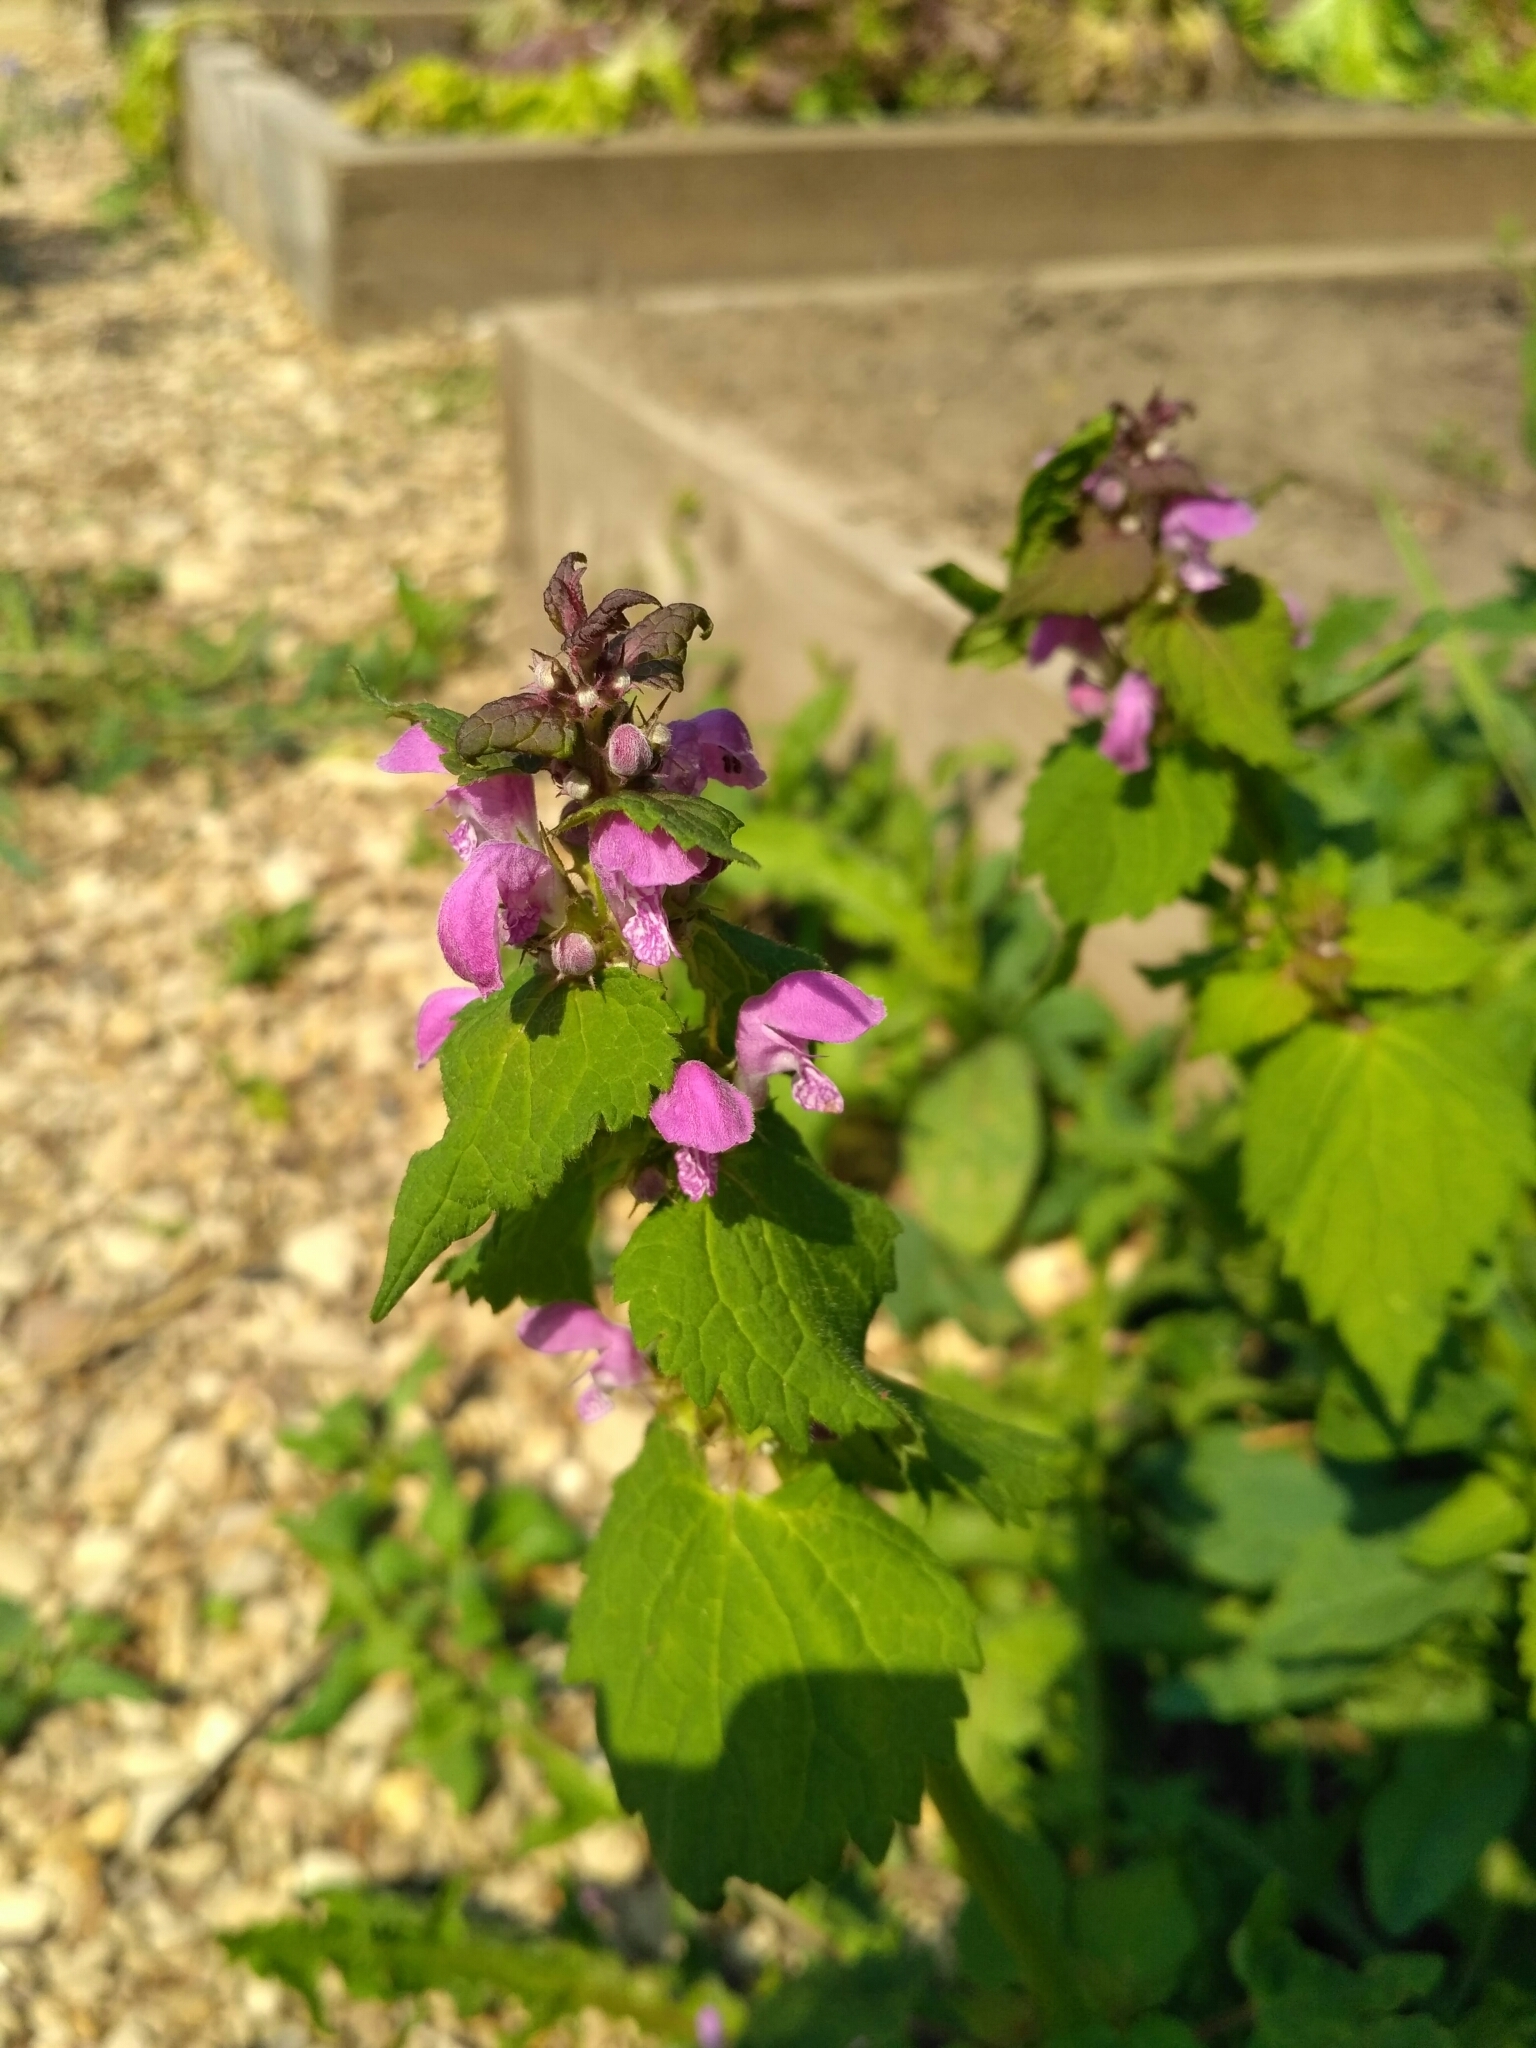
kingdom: Plantae
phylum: Tracheophyta
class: Magnoliopsida
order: Lamiales
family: Lamiaceae
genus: Lamium
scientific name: Lamium maculatum
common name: Spotted dead-nettle
